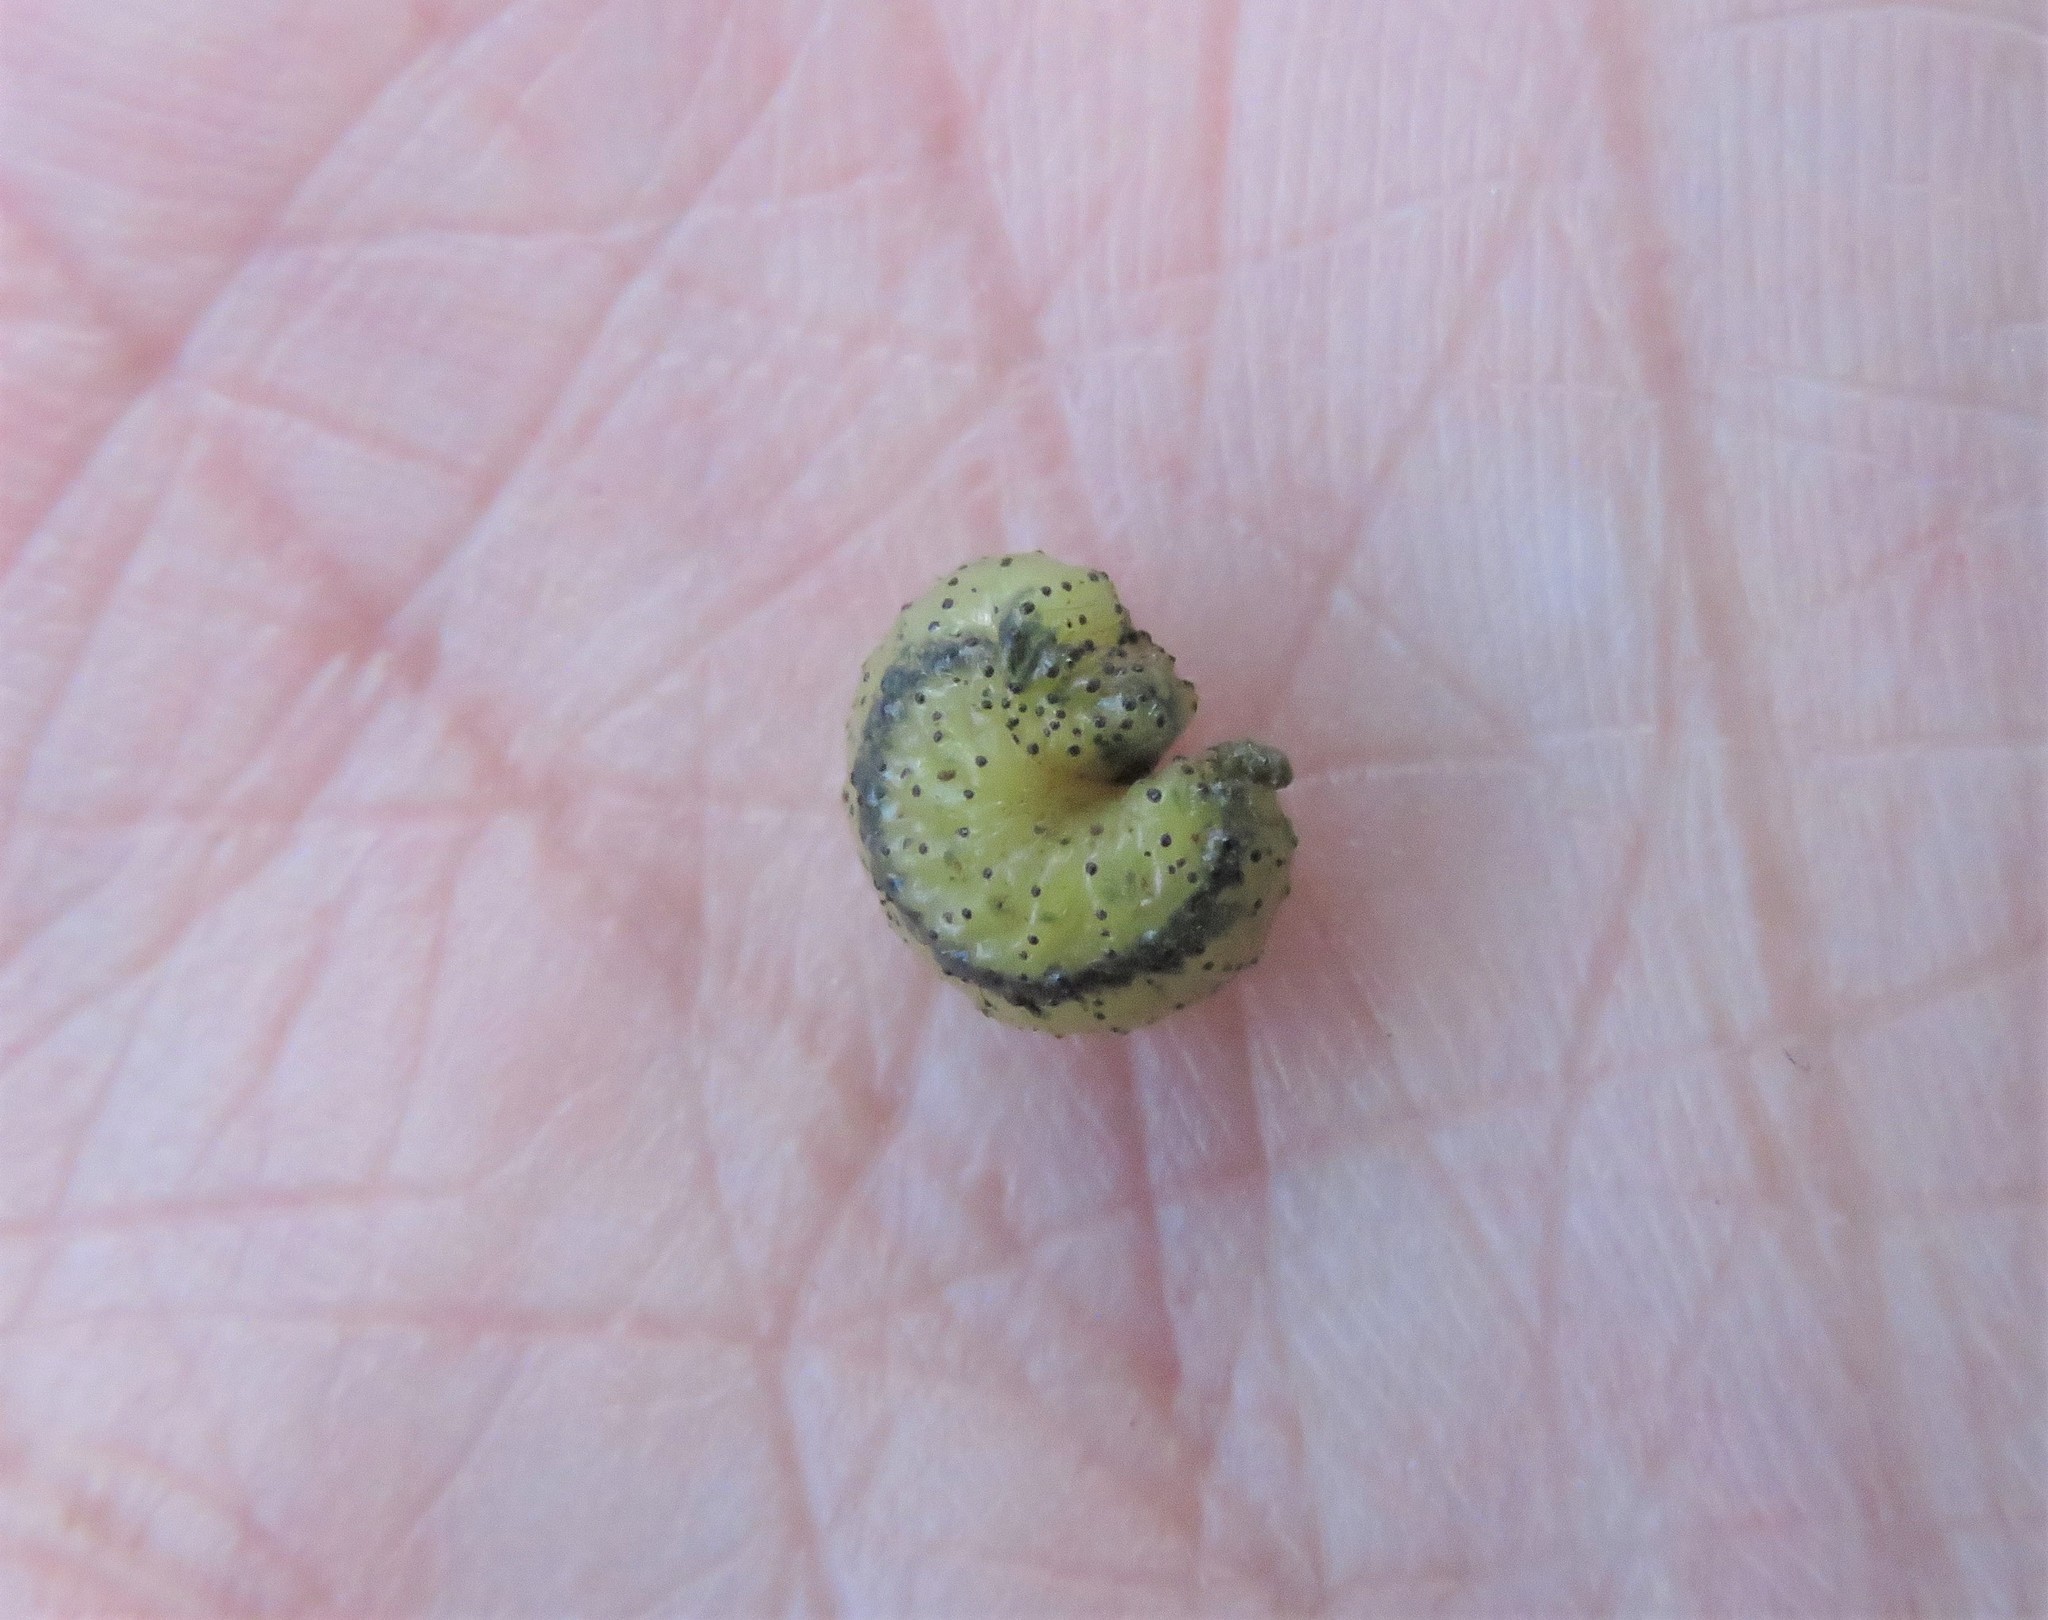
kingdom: Animalia
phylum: Arthropoda
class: Insecta
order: Coleoptera
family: Curculionidae
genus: Gonipterus
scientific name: Gonipterus platensis
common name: Eucalyptus snout beetle
